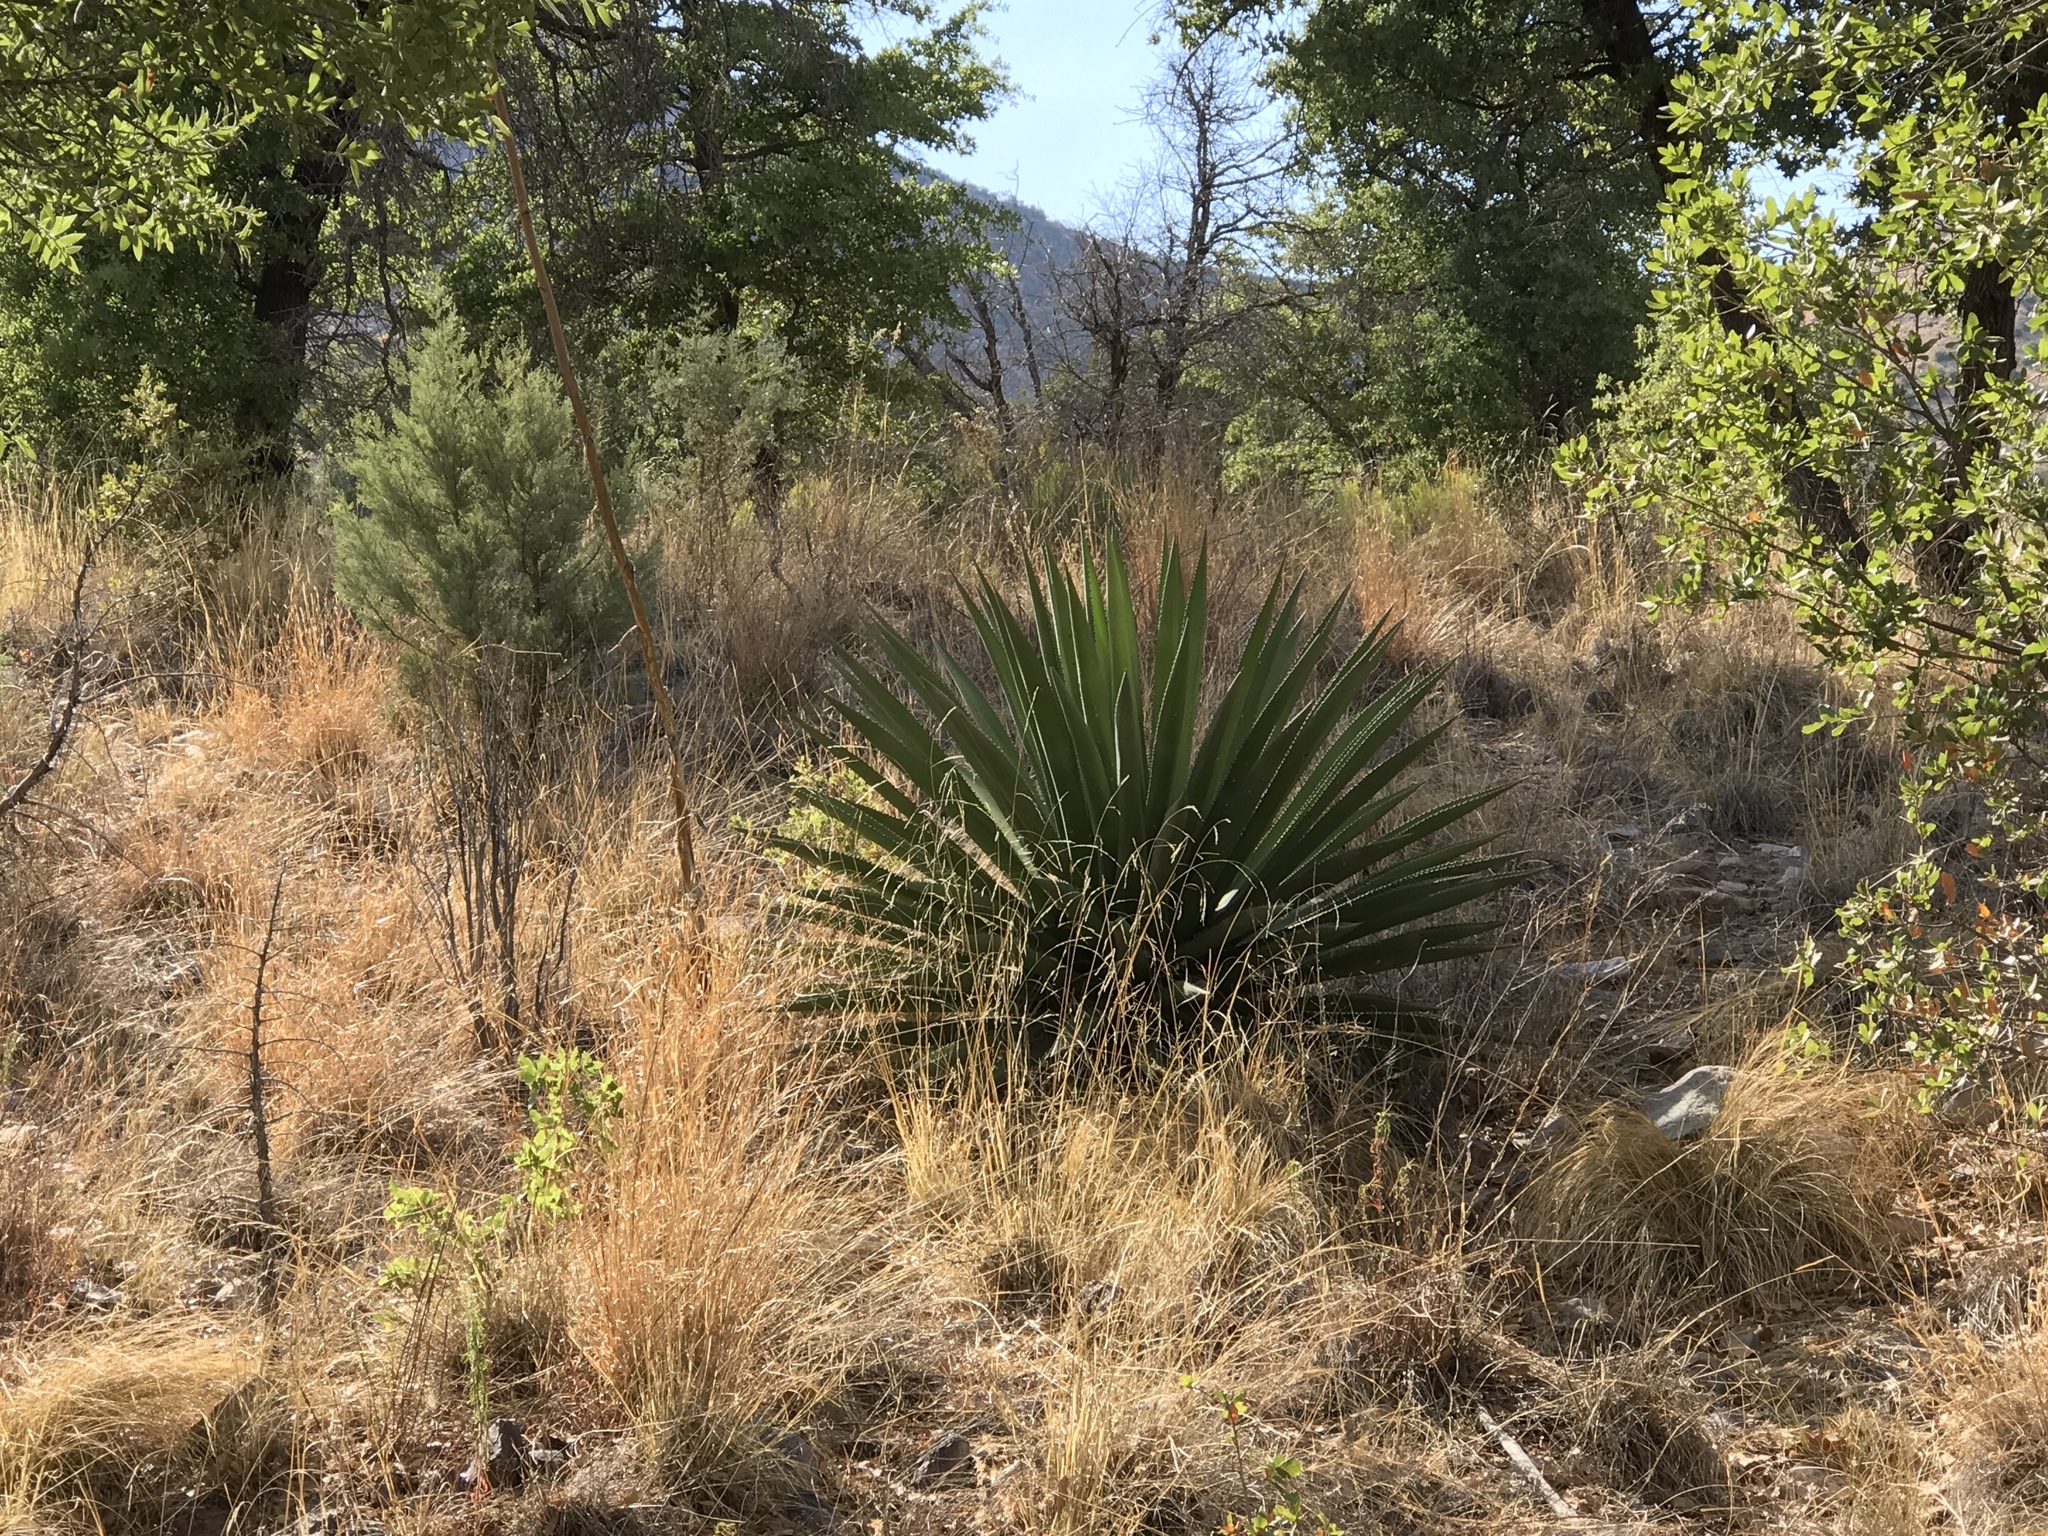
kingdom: Plantae
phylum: Tracheophyta
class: Liliopsida
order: Asparagales
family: Asparagaceae
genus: Agave
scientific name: Agave palmeri
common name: Palmer agave
